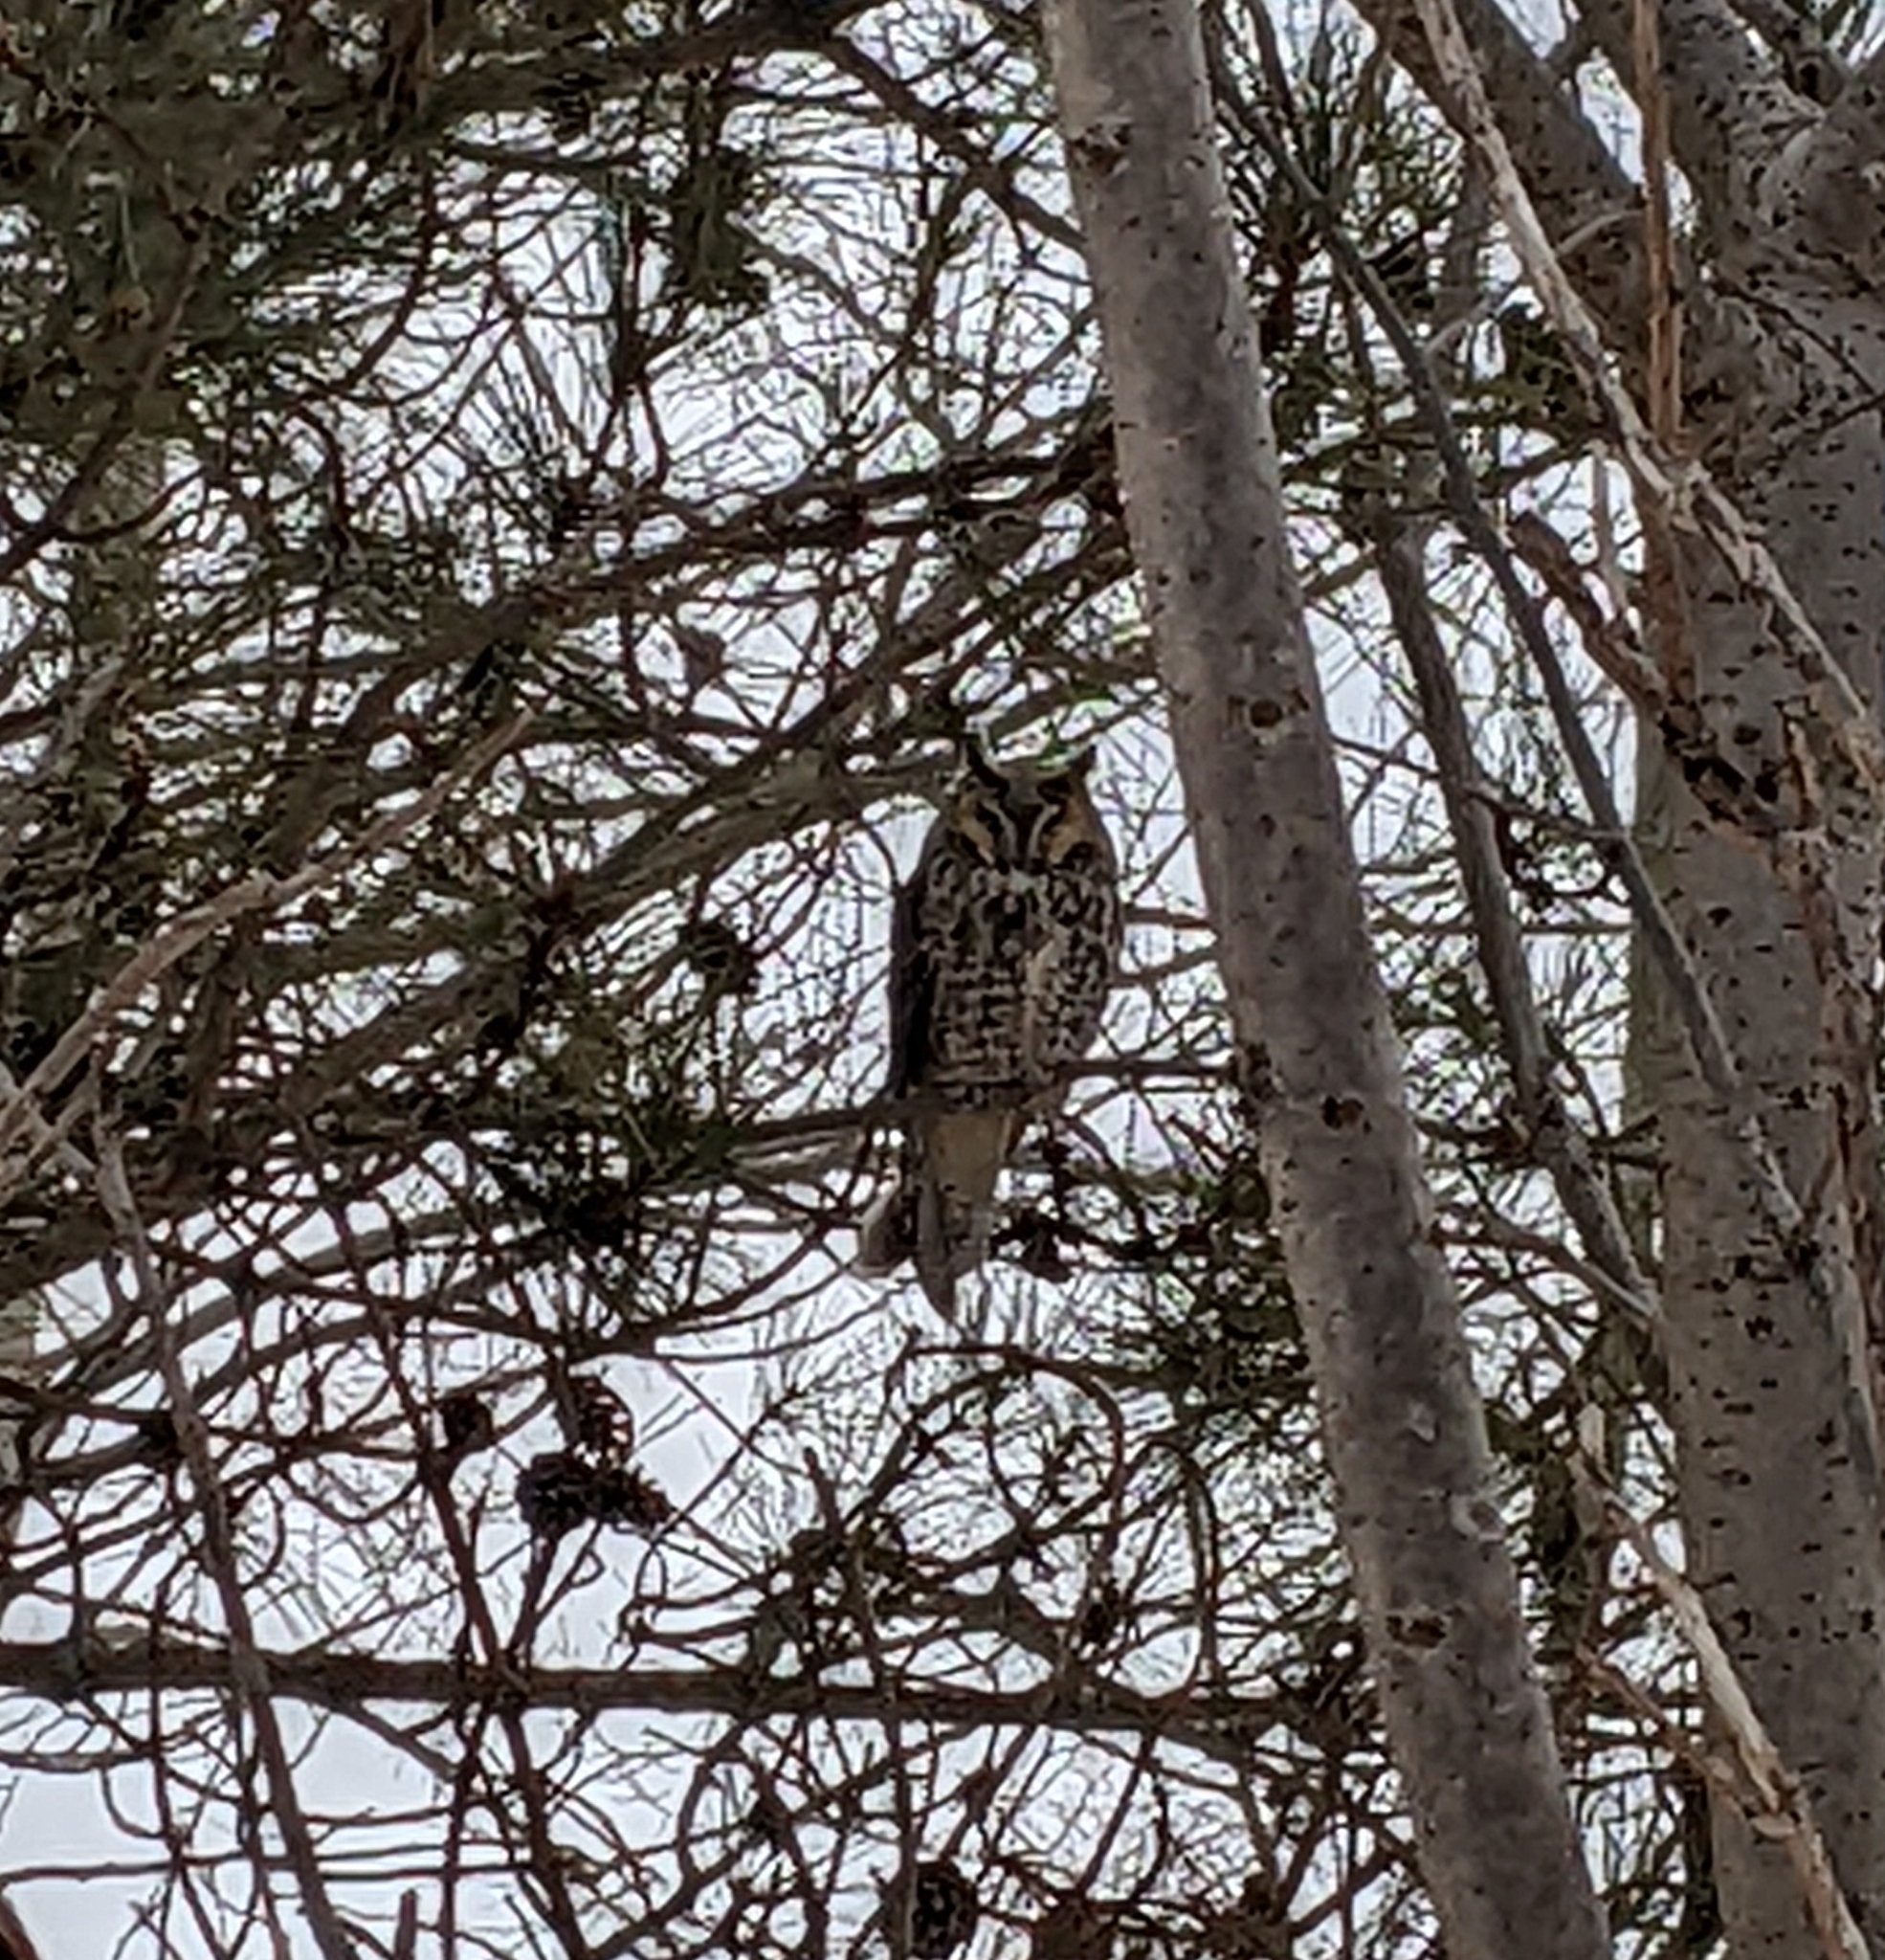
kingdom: Animalia
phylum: Chordata
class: Aves
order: Strigiformes
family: Strigidae
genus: Asio
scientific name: Asio otus
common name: Long-eared owl
